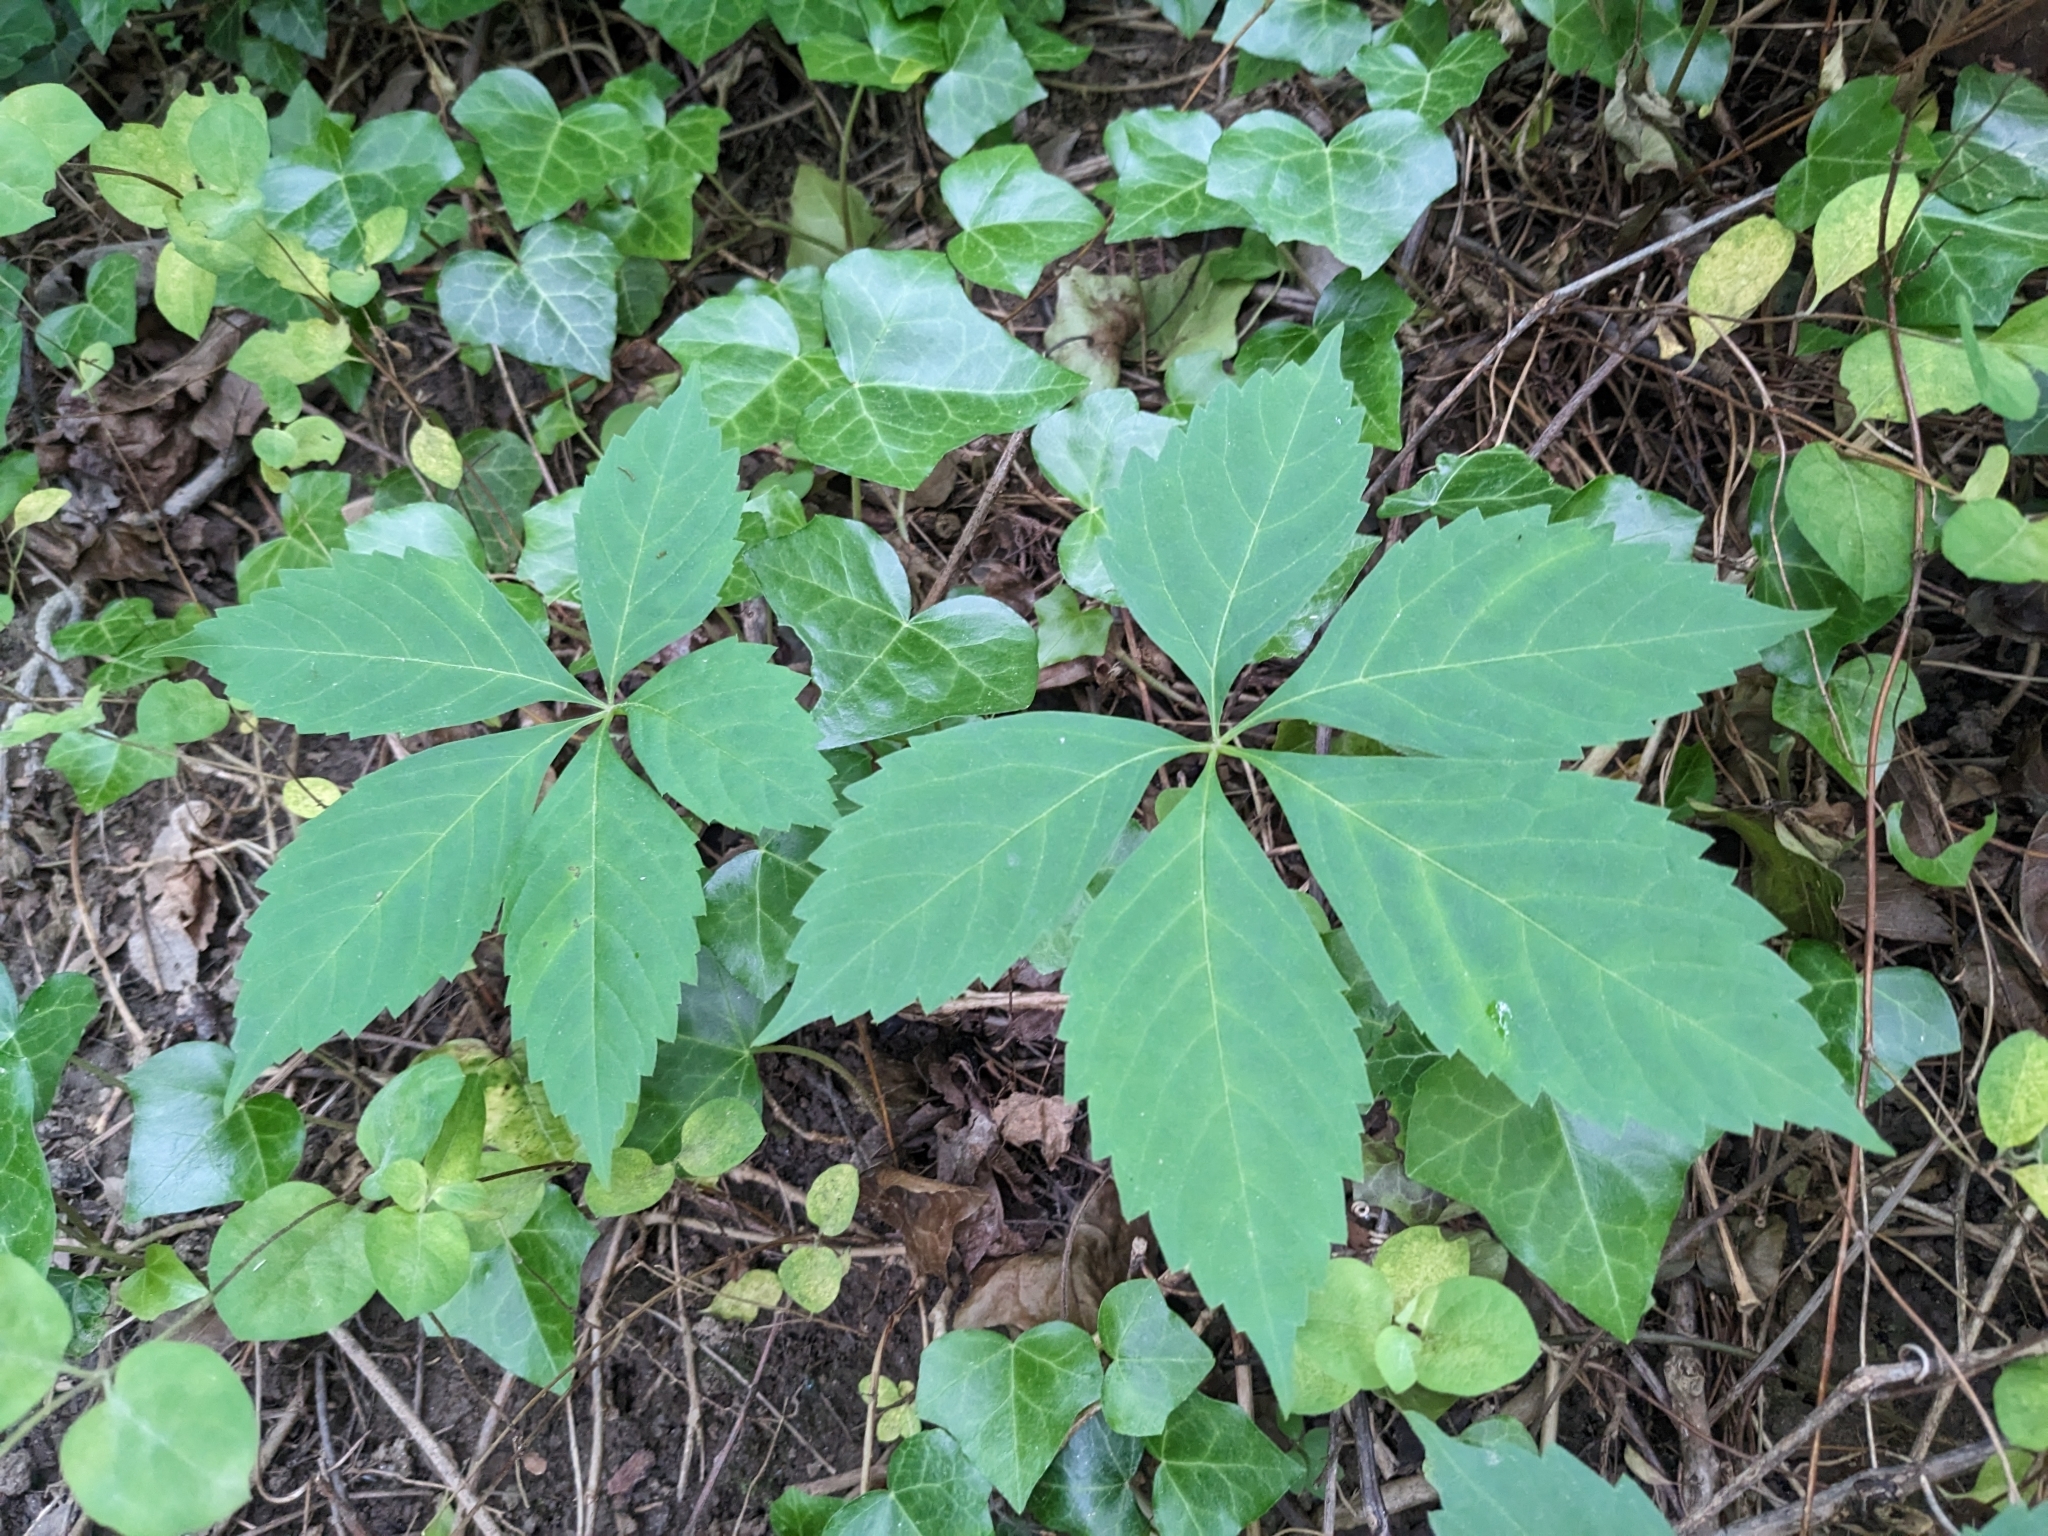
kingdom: Plantae
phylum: Tracheophyta
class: Magnoliopsida
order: Vitales
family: Vitaceae
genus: Parthenocissus
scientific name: Parthenocissus quinquefolia
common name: Virginia-creeper
